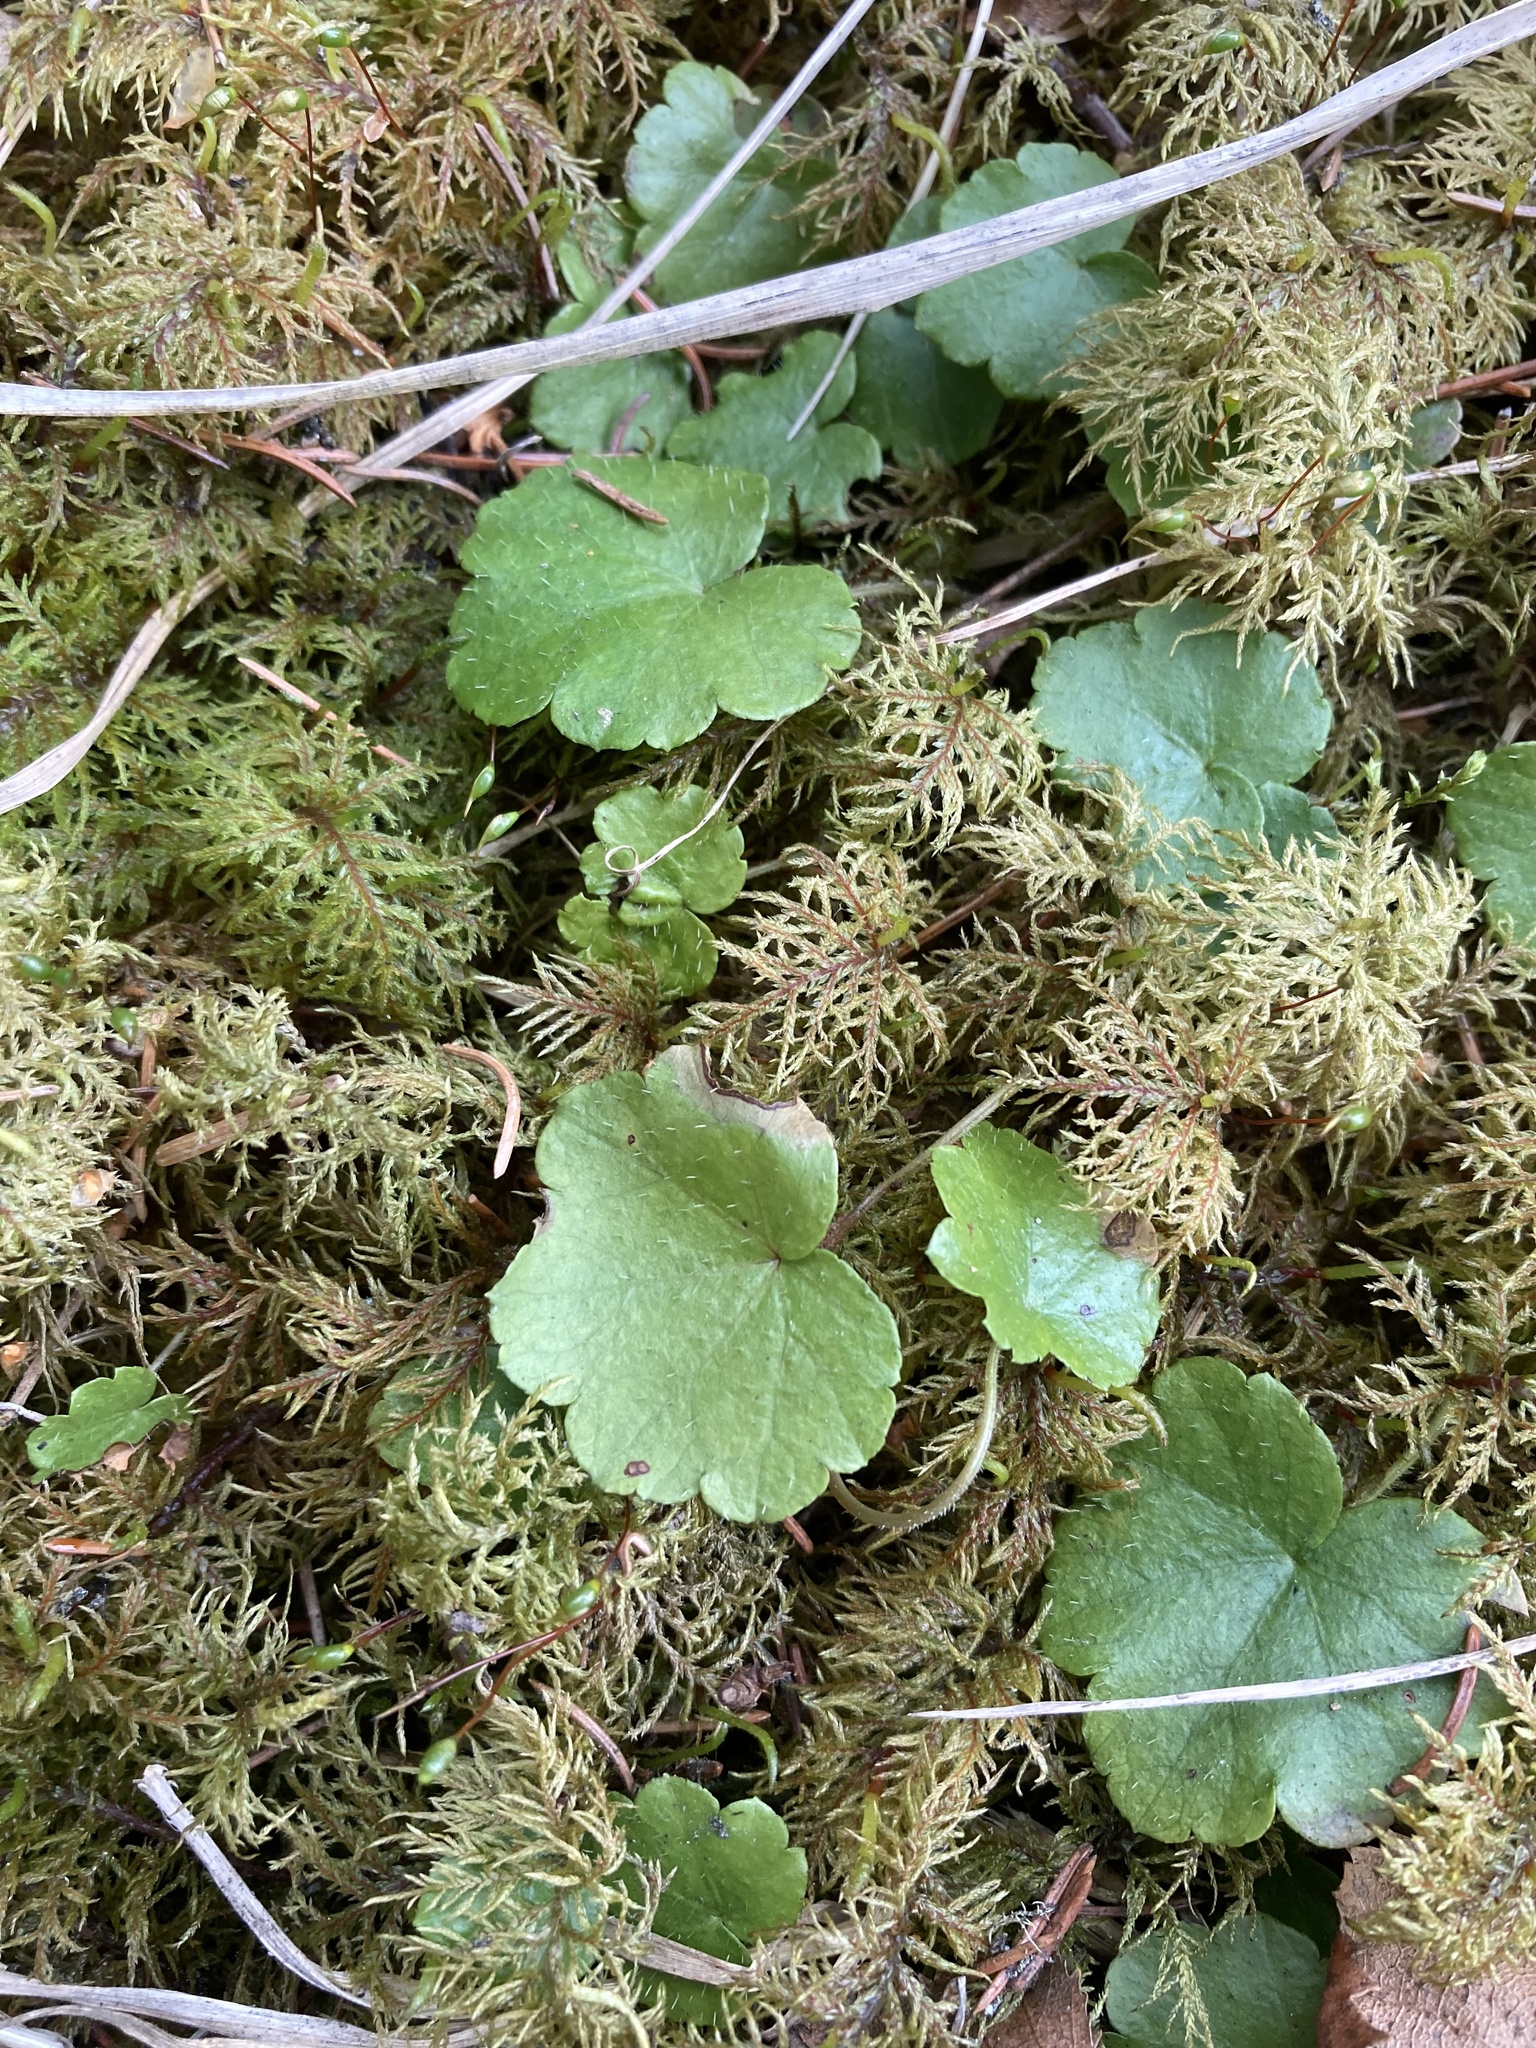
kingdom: Plantae
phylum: Tracheophyta
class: Magnoliopsida
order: Saxifragales
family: Saxifragaceae
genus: Mitella
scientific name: Mitella nuda
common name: Bare-stemmed bishop's-cap
